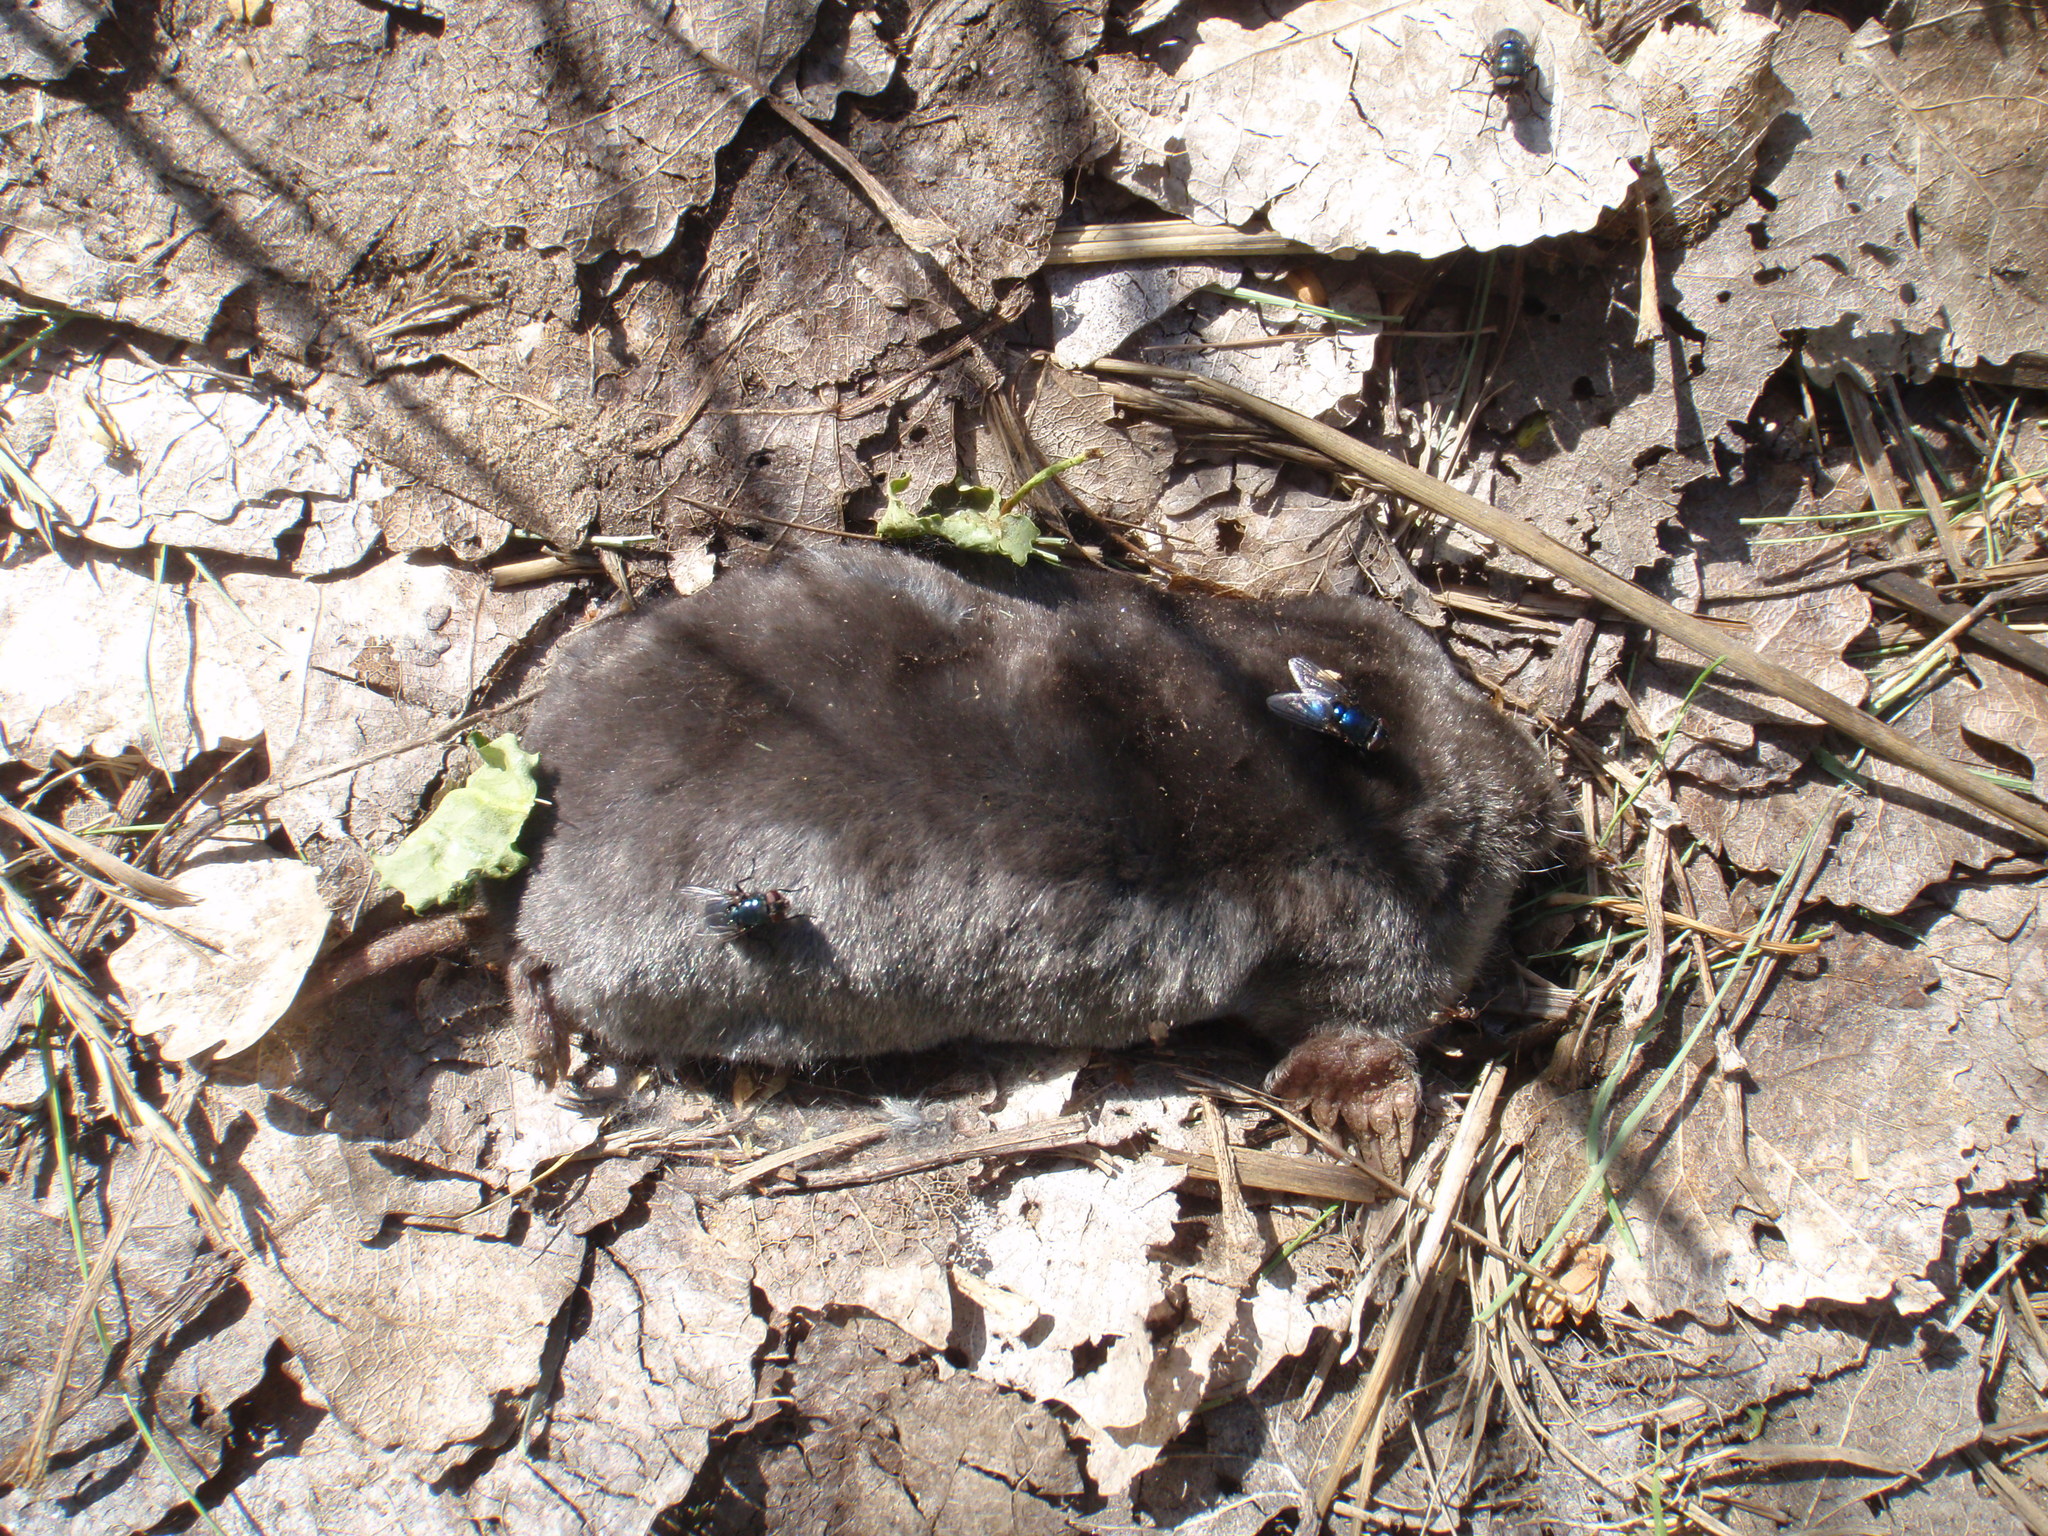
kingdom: Animalia
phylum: Chordata
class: Mammalia
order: Soricomorpha
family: Talpidae
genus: Scapanus
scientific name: Scapanus latimanus
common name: Broad-footed mole
